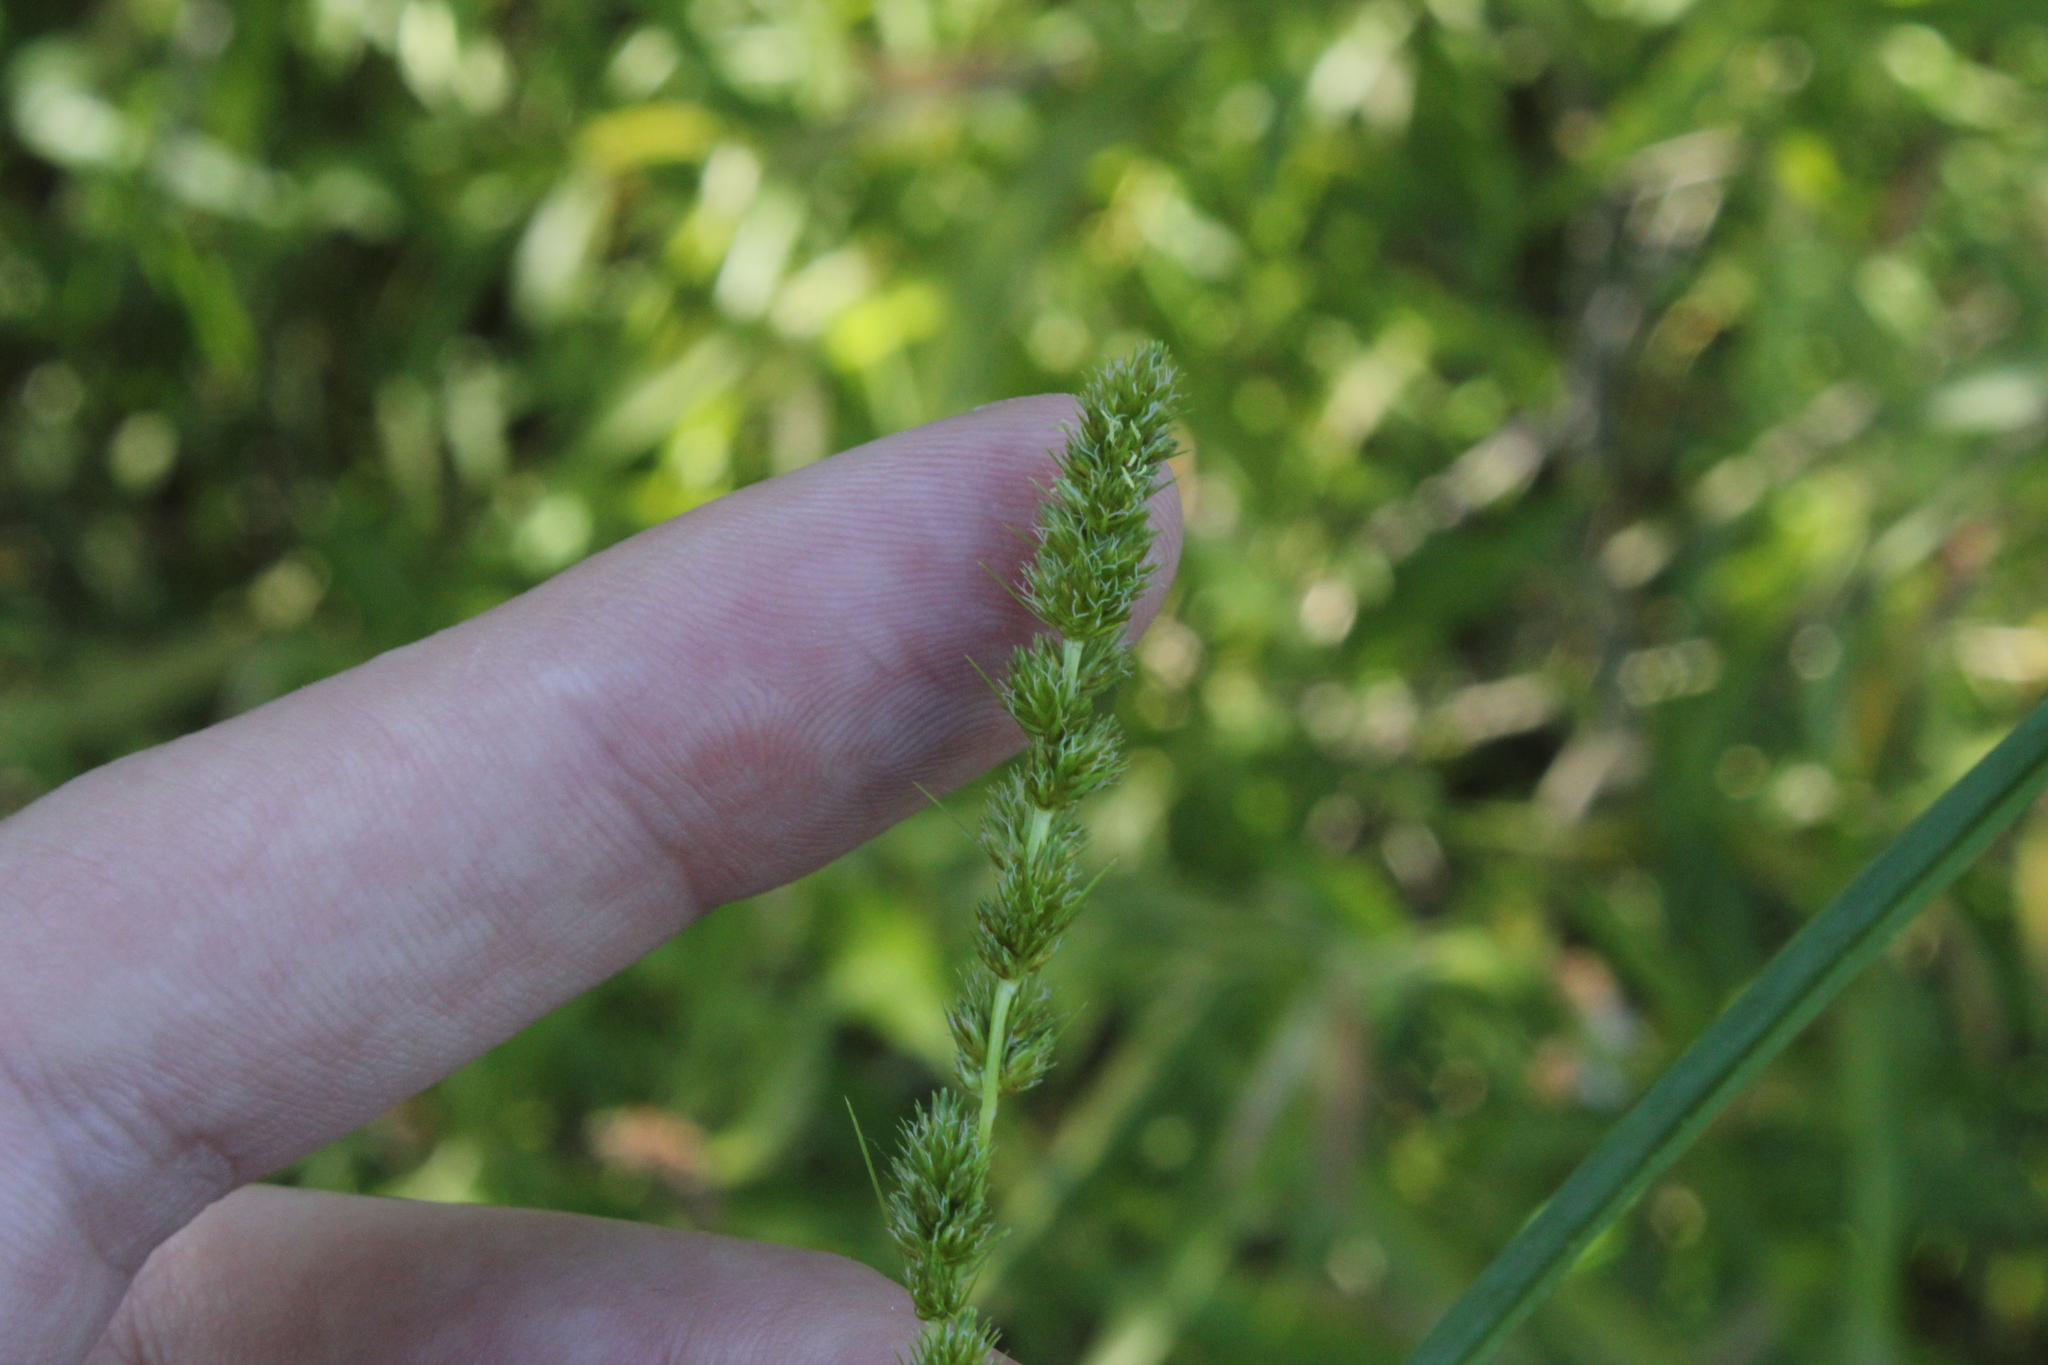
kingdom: Plantae
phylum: Tracheophyta
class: Liliopsida
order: Poales
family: Cyperaceae
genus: Carex
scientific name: Carex vulpinoidea
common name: American fox-sedge
